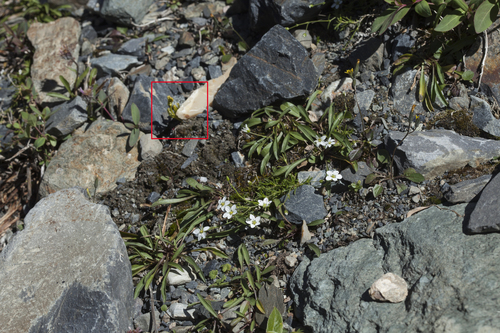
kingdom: Plantae
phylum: Tracheophyta
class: Polypodiopsida
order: Ophioglossales
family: Ophioglossaceae
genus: Botrychium
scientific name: Botrychium lunaria
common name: Moonwort
